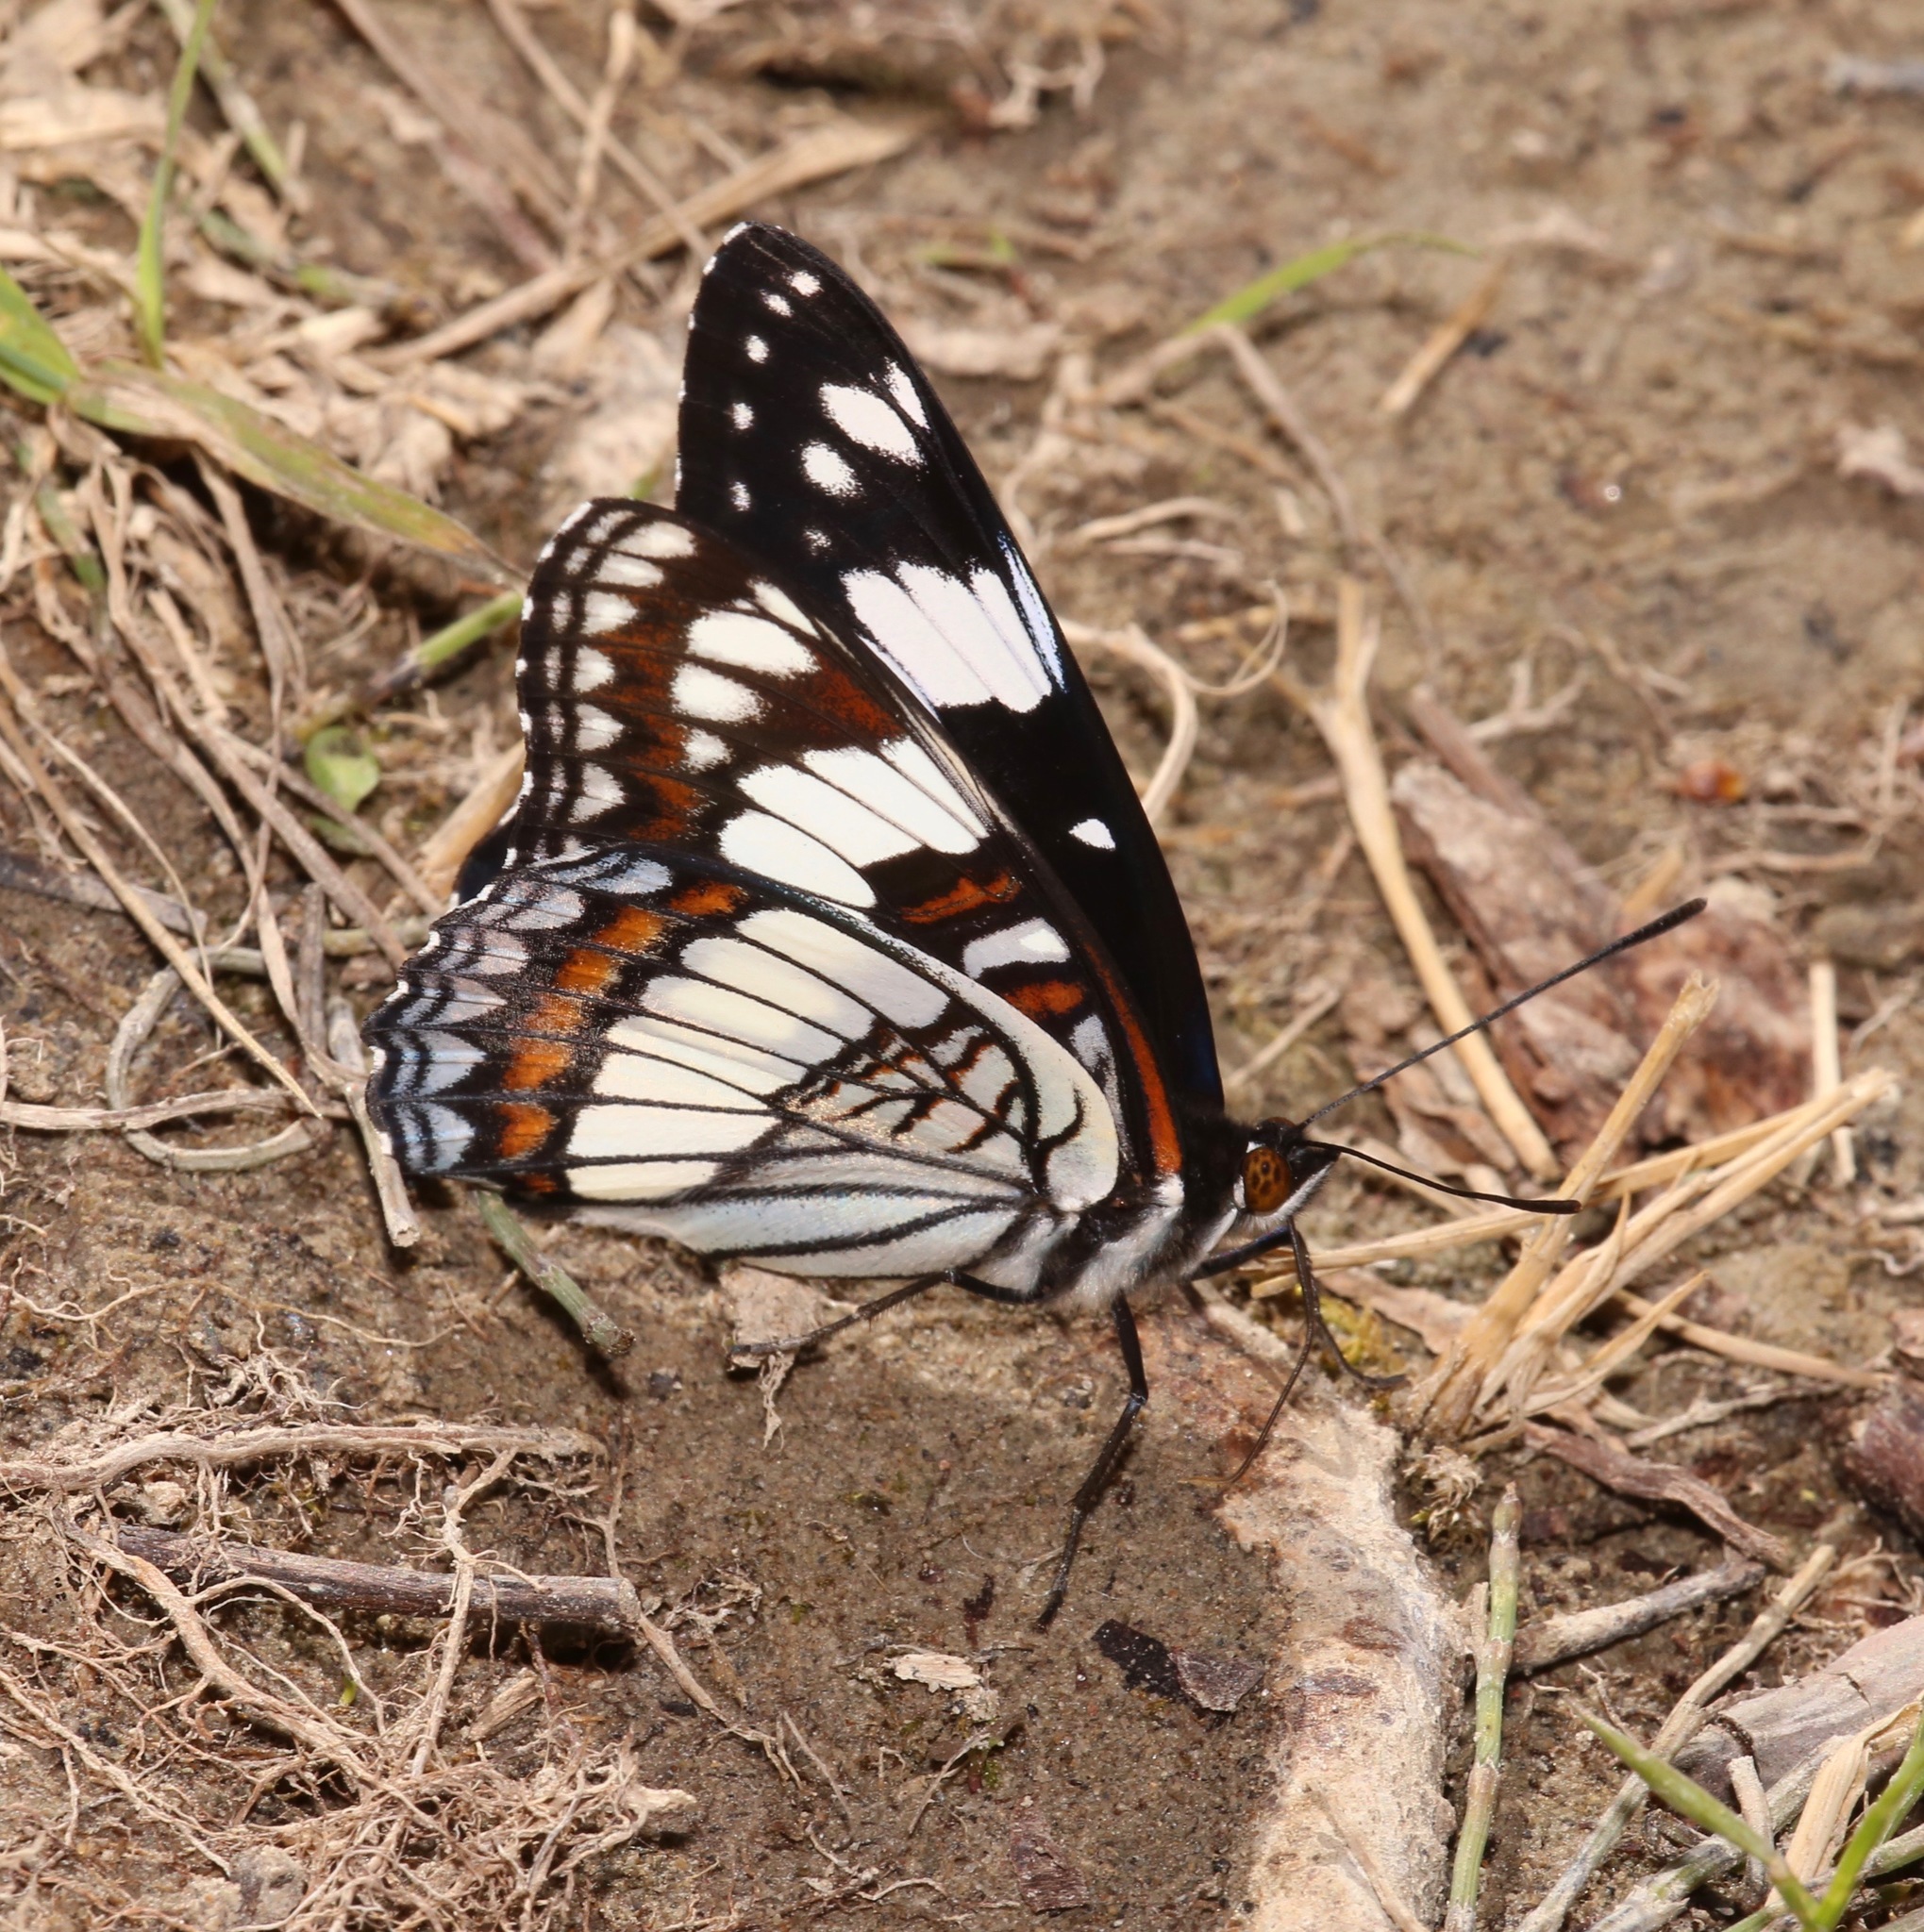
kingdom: Animalia
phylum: Arthropoda
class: Insecta
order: Lepidoptera
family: Nymphalidae
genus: Limenitis
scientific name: Limenitis weidemeyerii
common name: Weidemeyer's admiral
